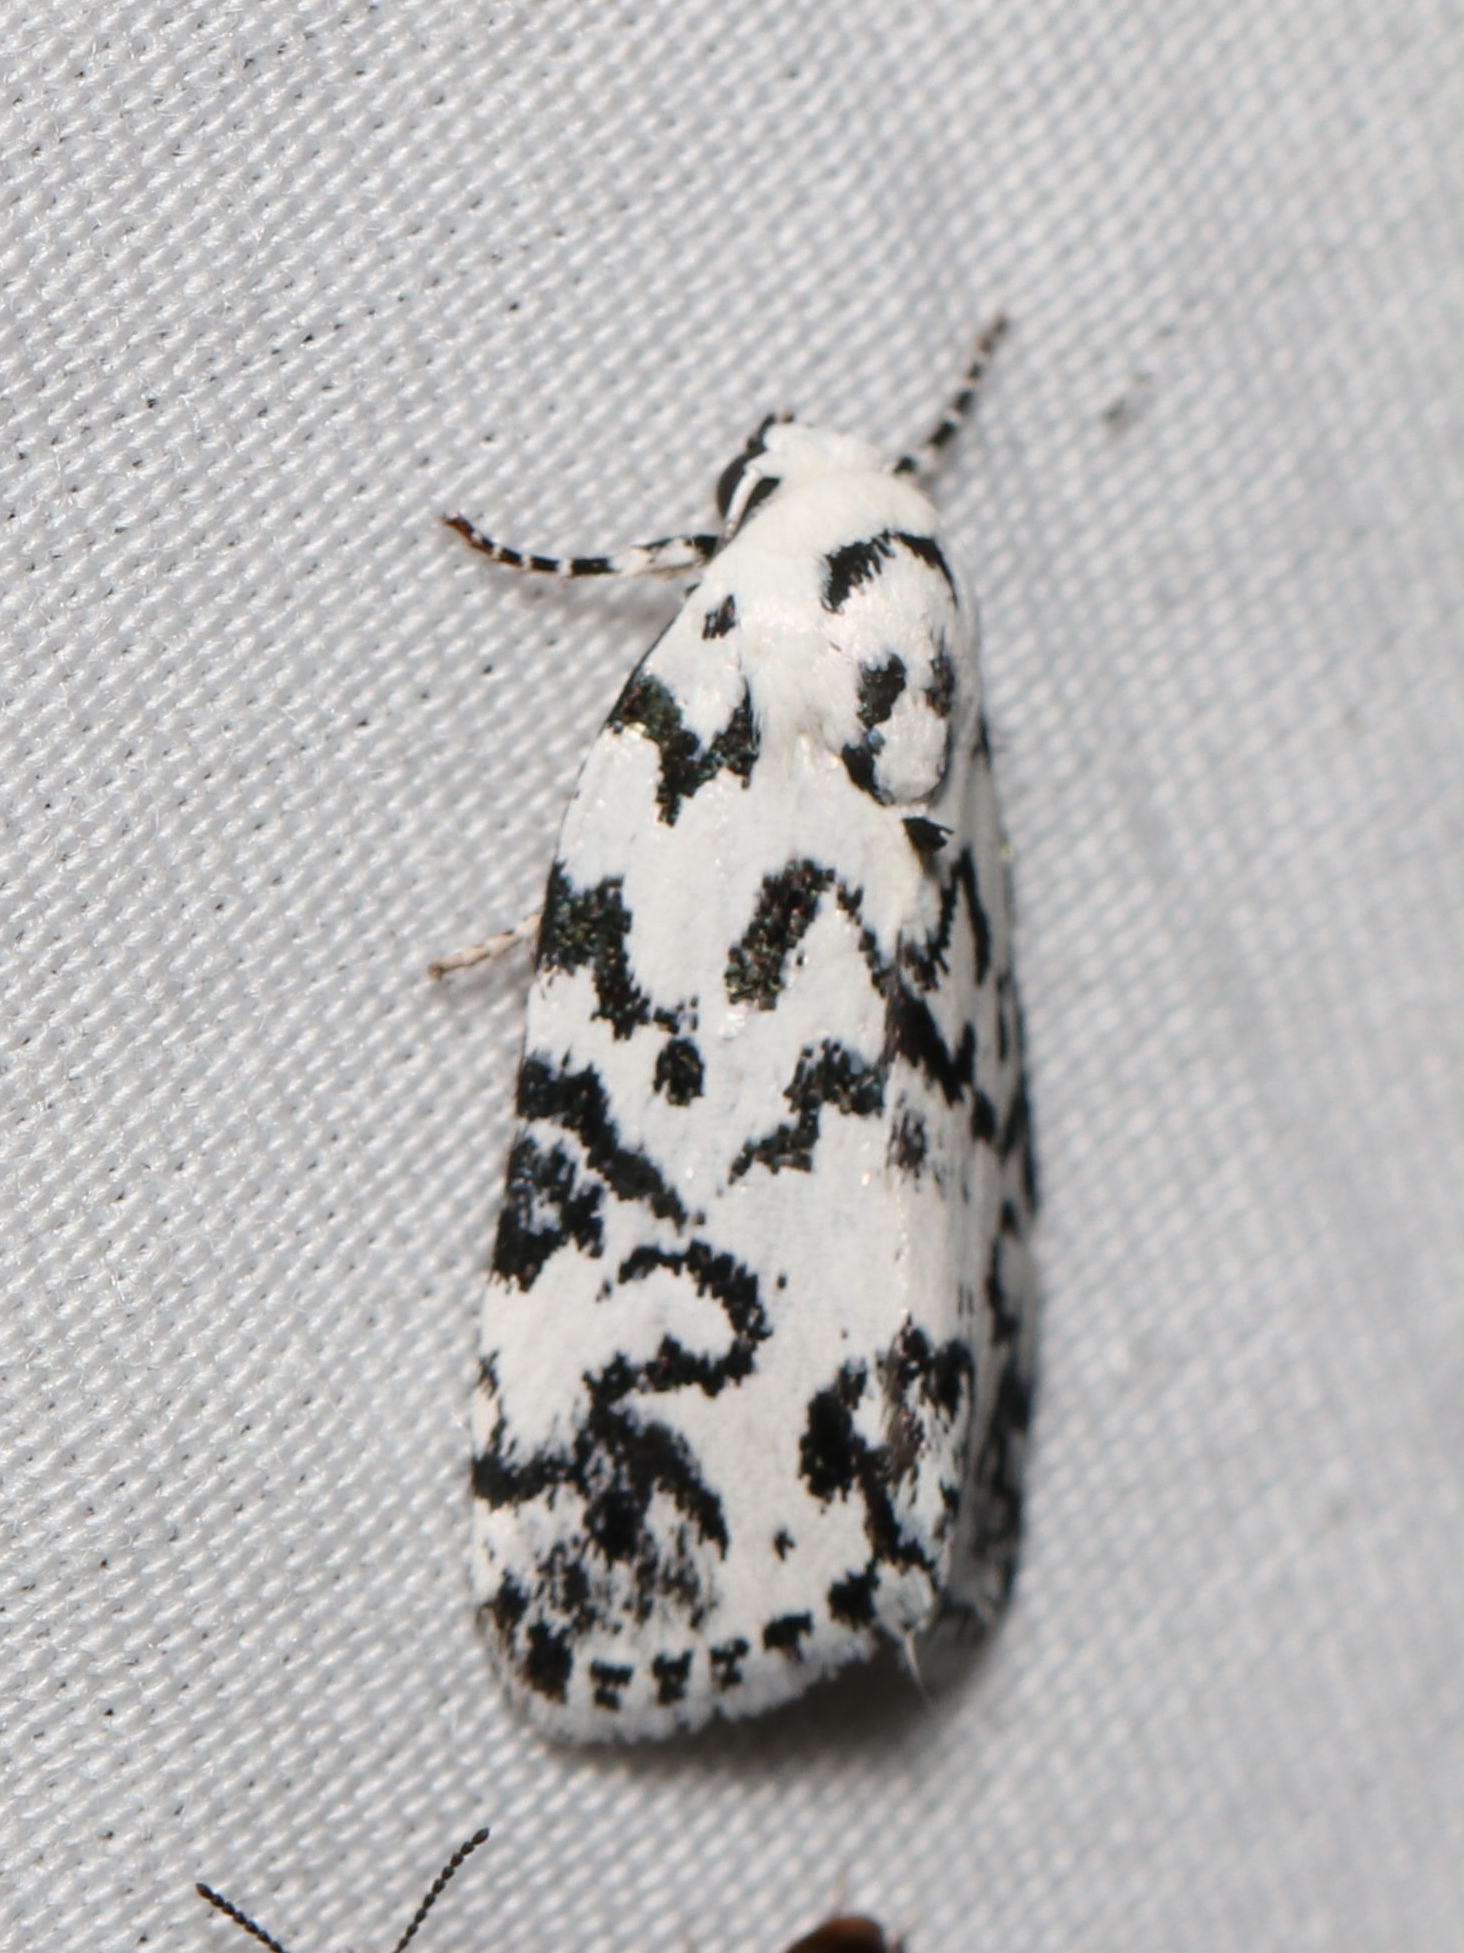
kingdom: Animalia
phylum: Arthropoda
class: Insecta
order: Lepidoptera
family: Noctuidae
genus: Polygrammate
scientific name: Polygrammate hebraeicum
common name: Hebrew moth
